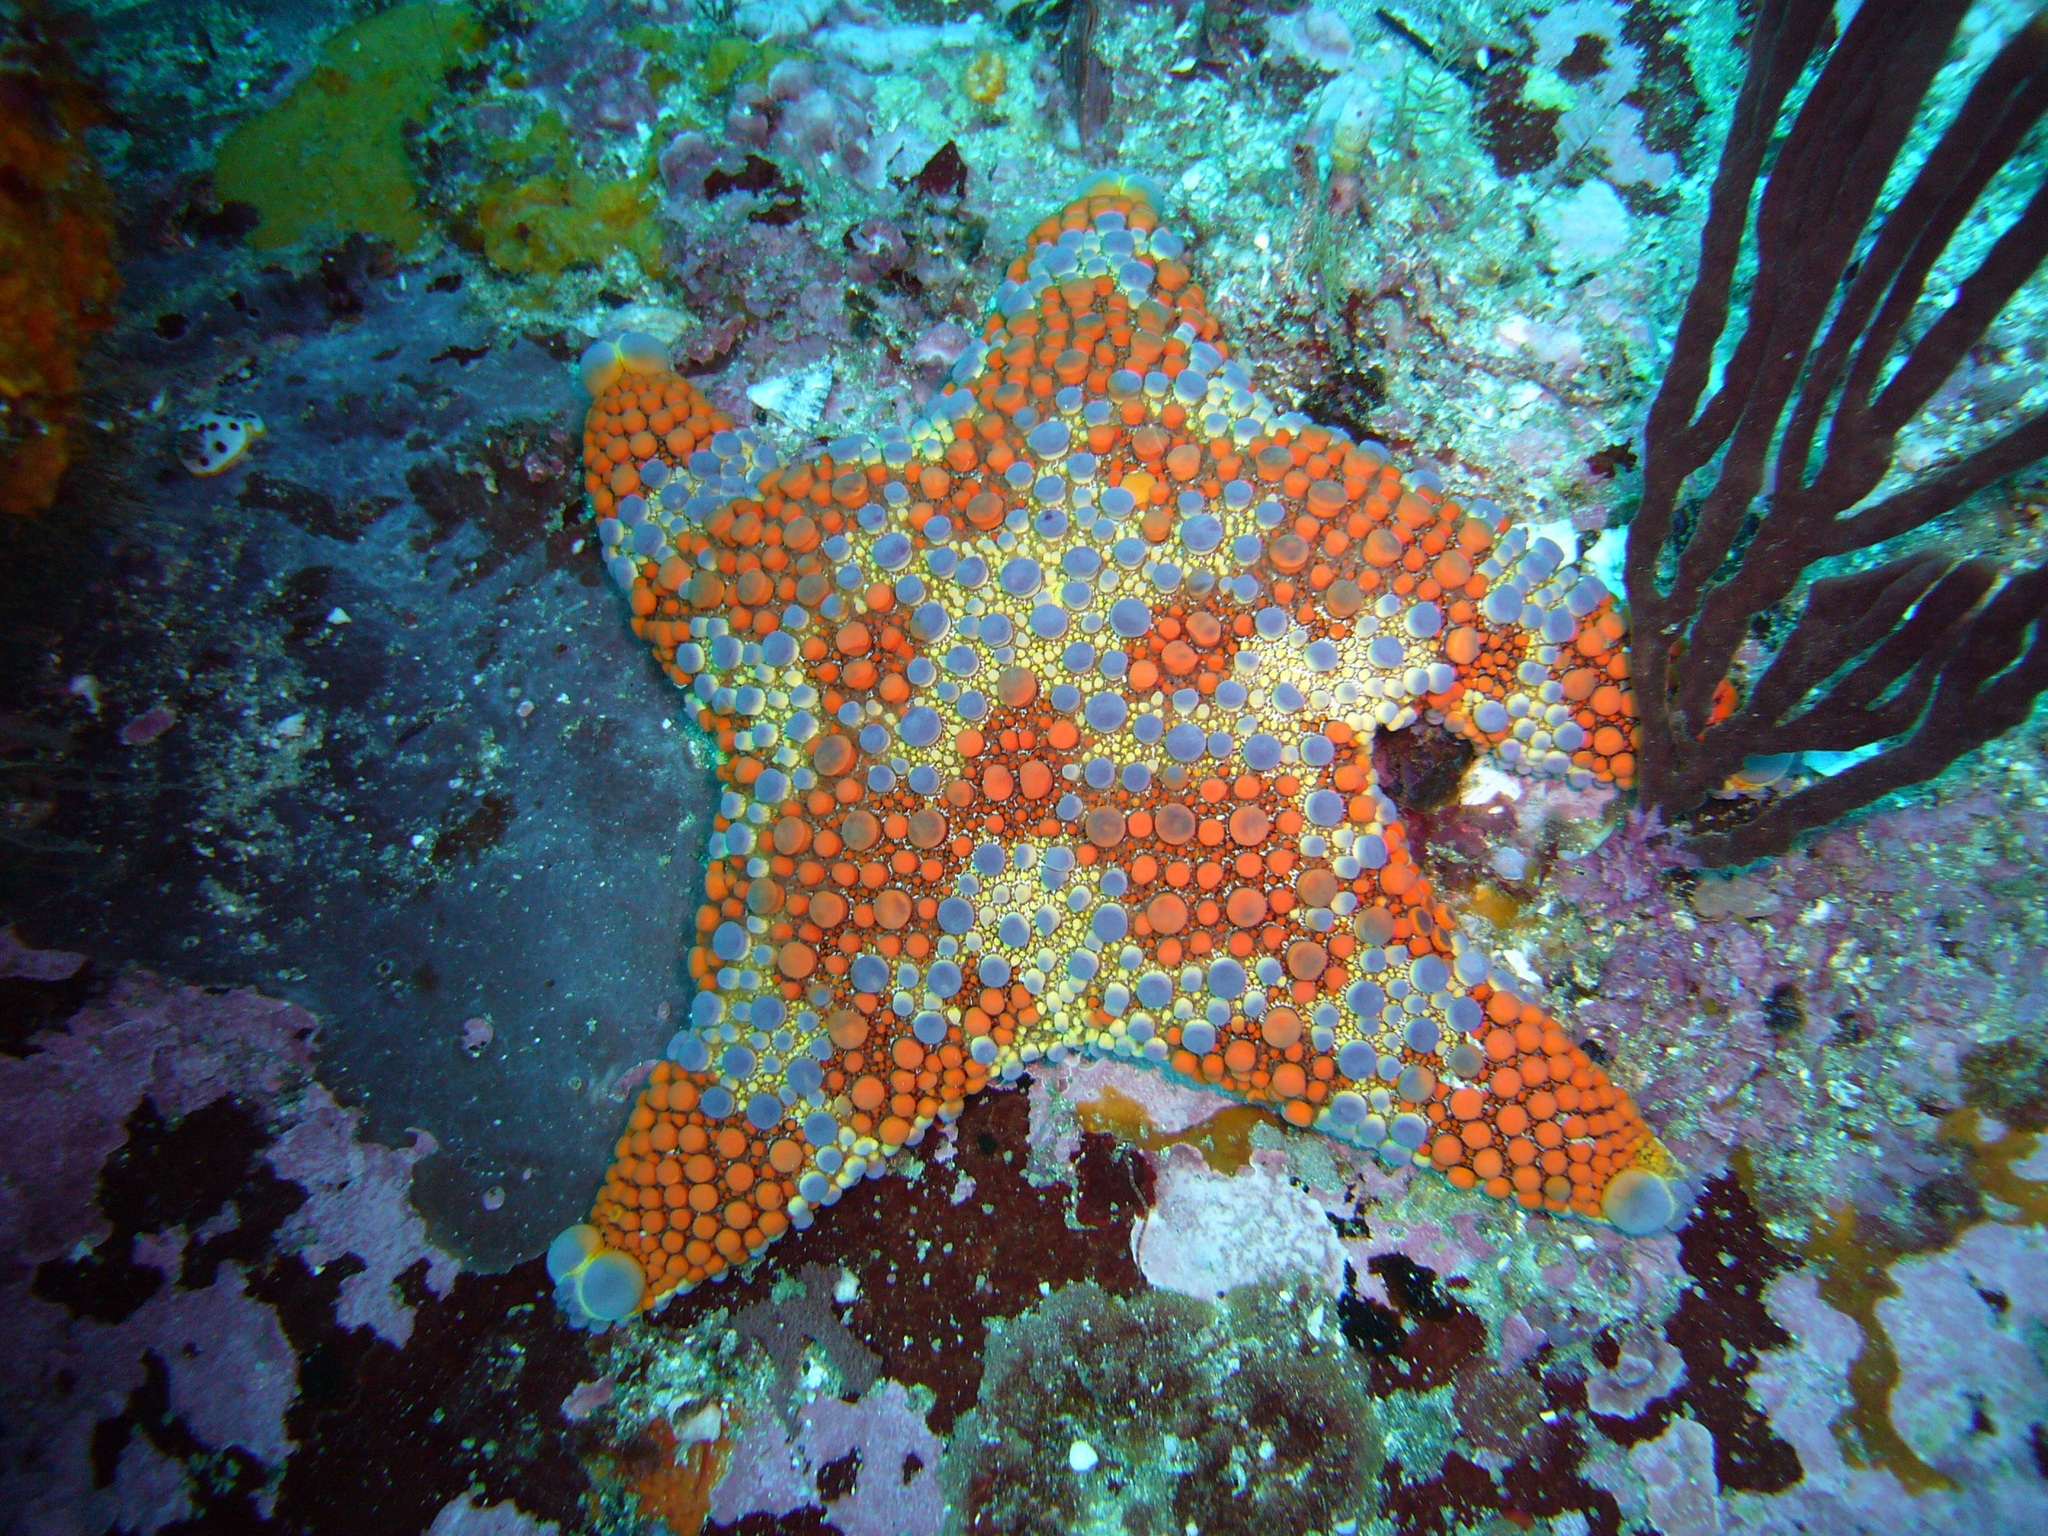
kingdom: Animalia
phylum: Echinodermata
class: Asteroidea
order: Valvatida
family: Asterodiscididae
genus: Asterodiscides
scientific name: Asterodiscides truncatus
